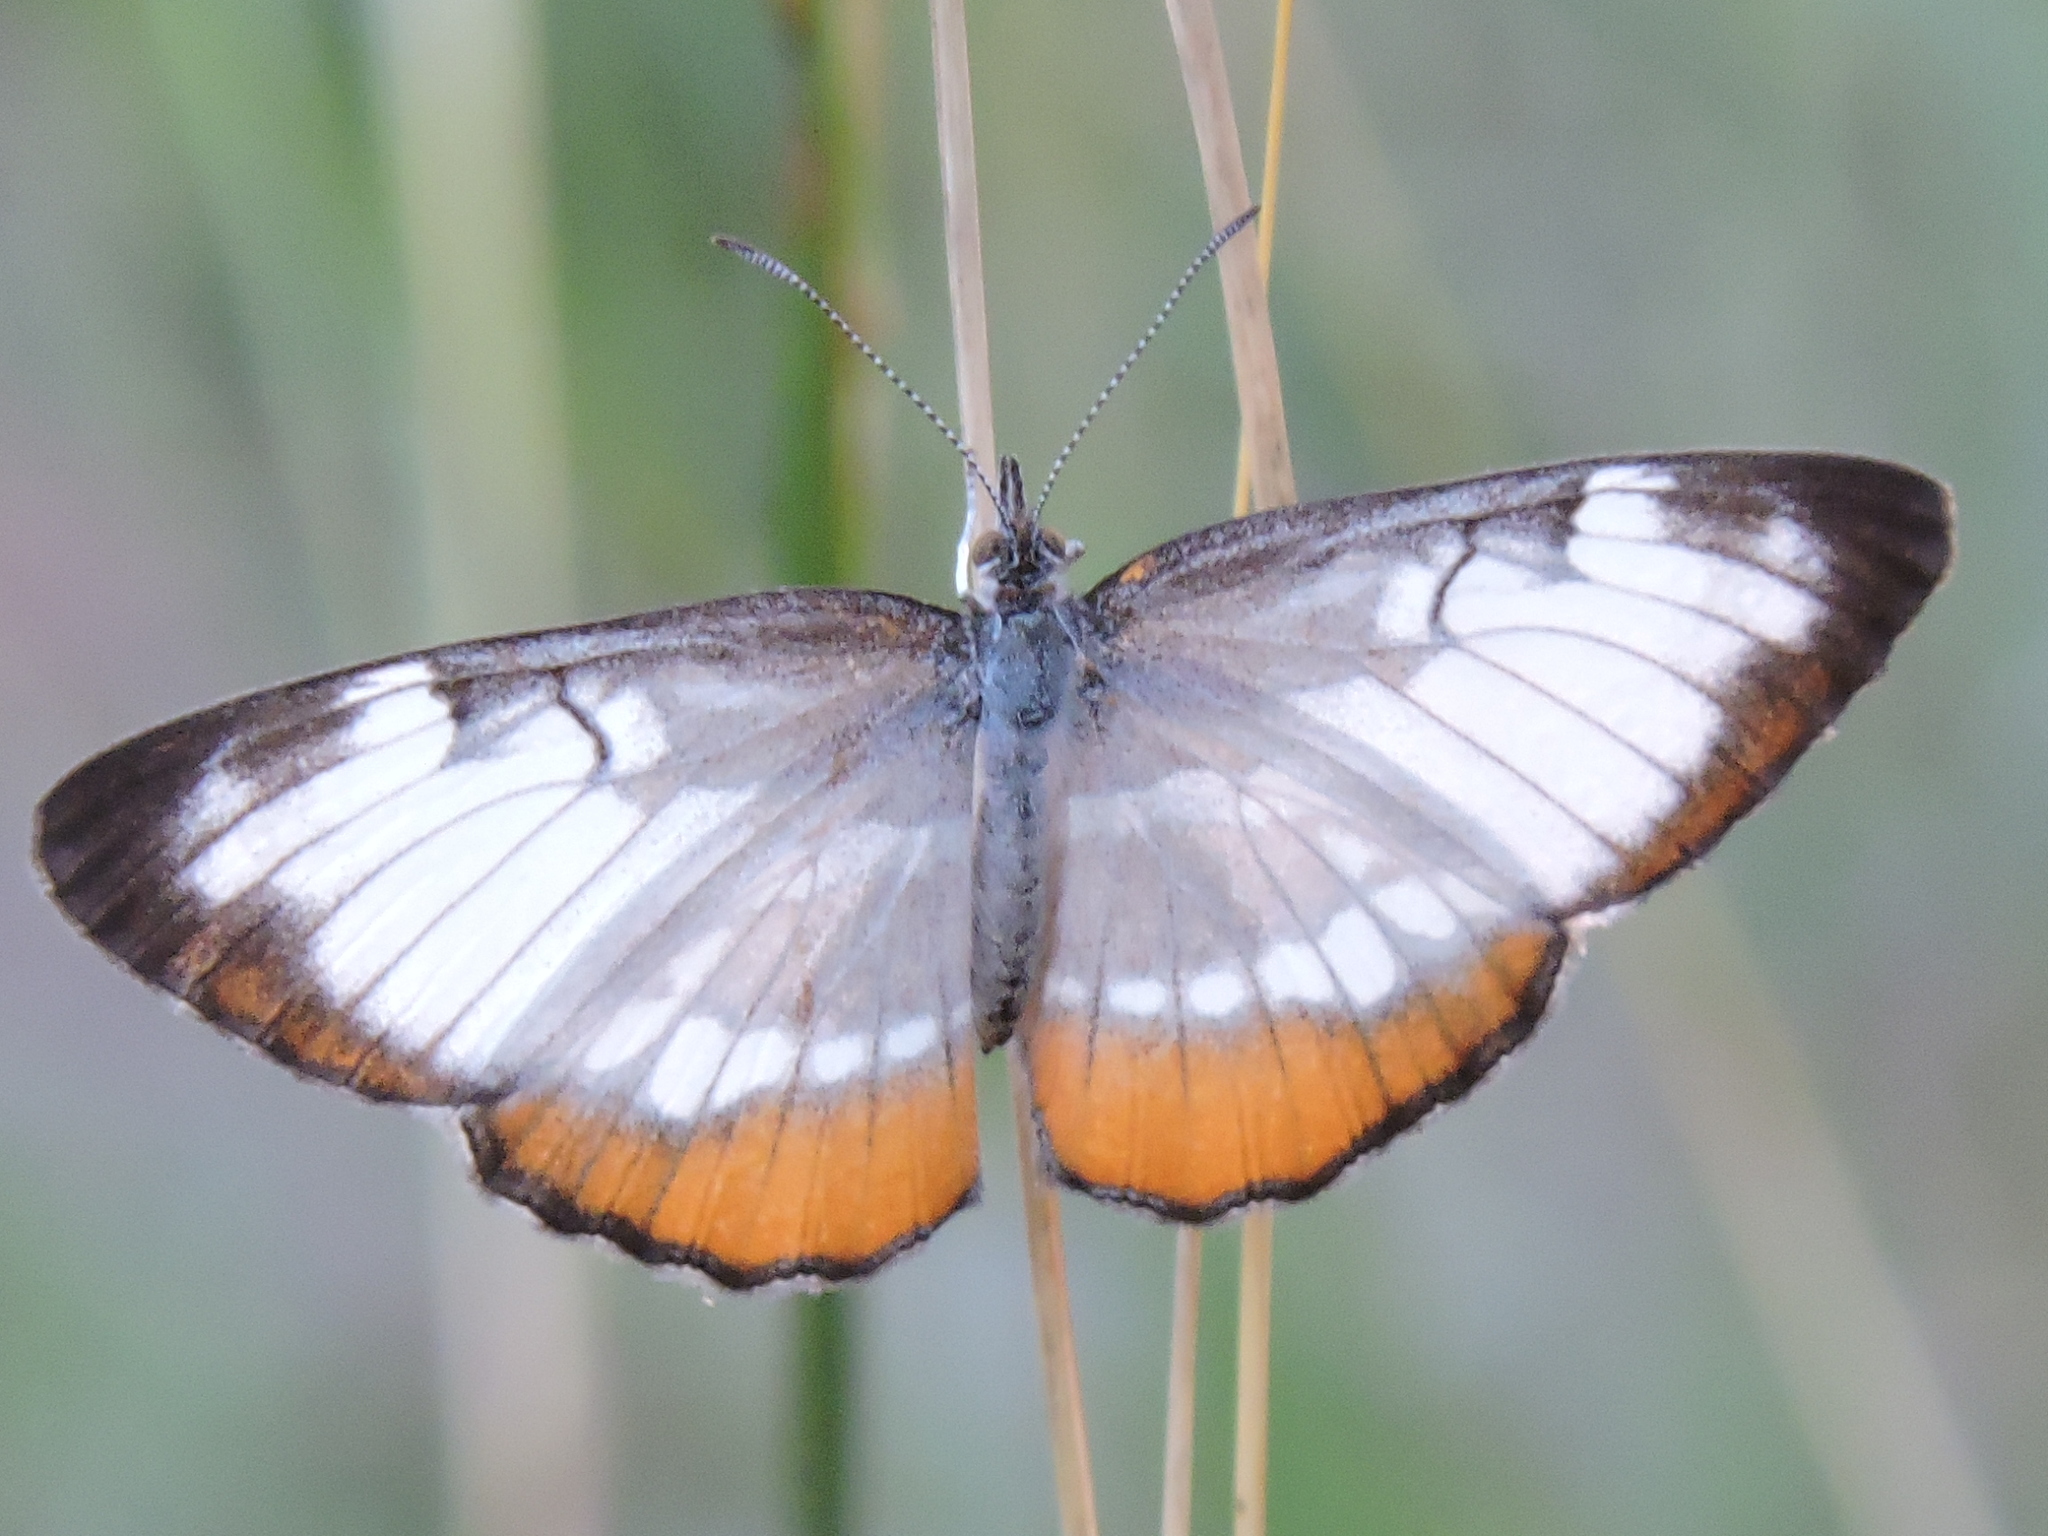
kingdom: Animalia
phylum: Arthropoda
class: Insecta
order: Lepidoptera
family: Nymphalidae
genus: Mestra
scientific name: Mestra amymone
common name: Common mestra
